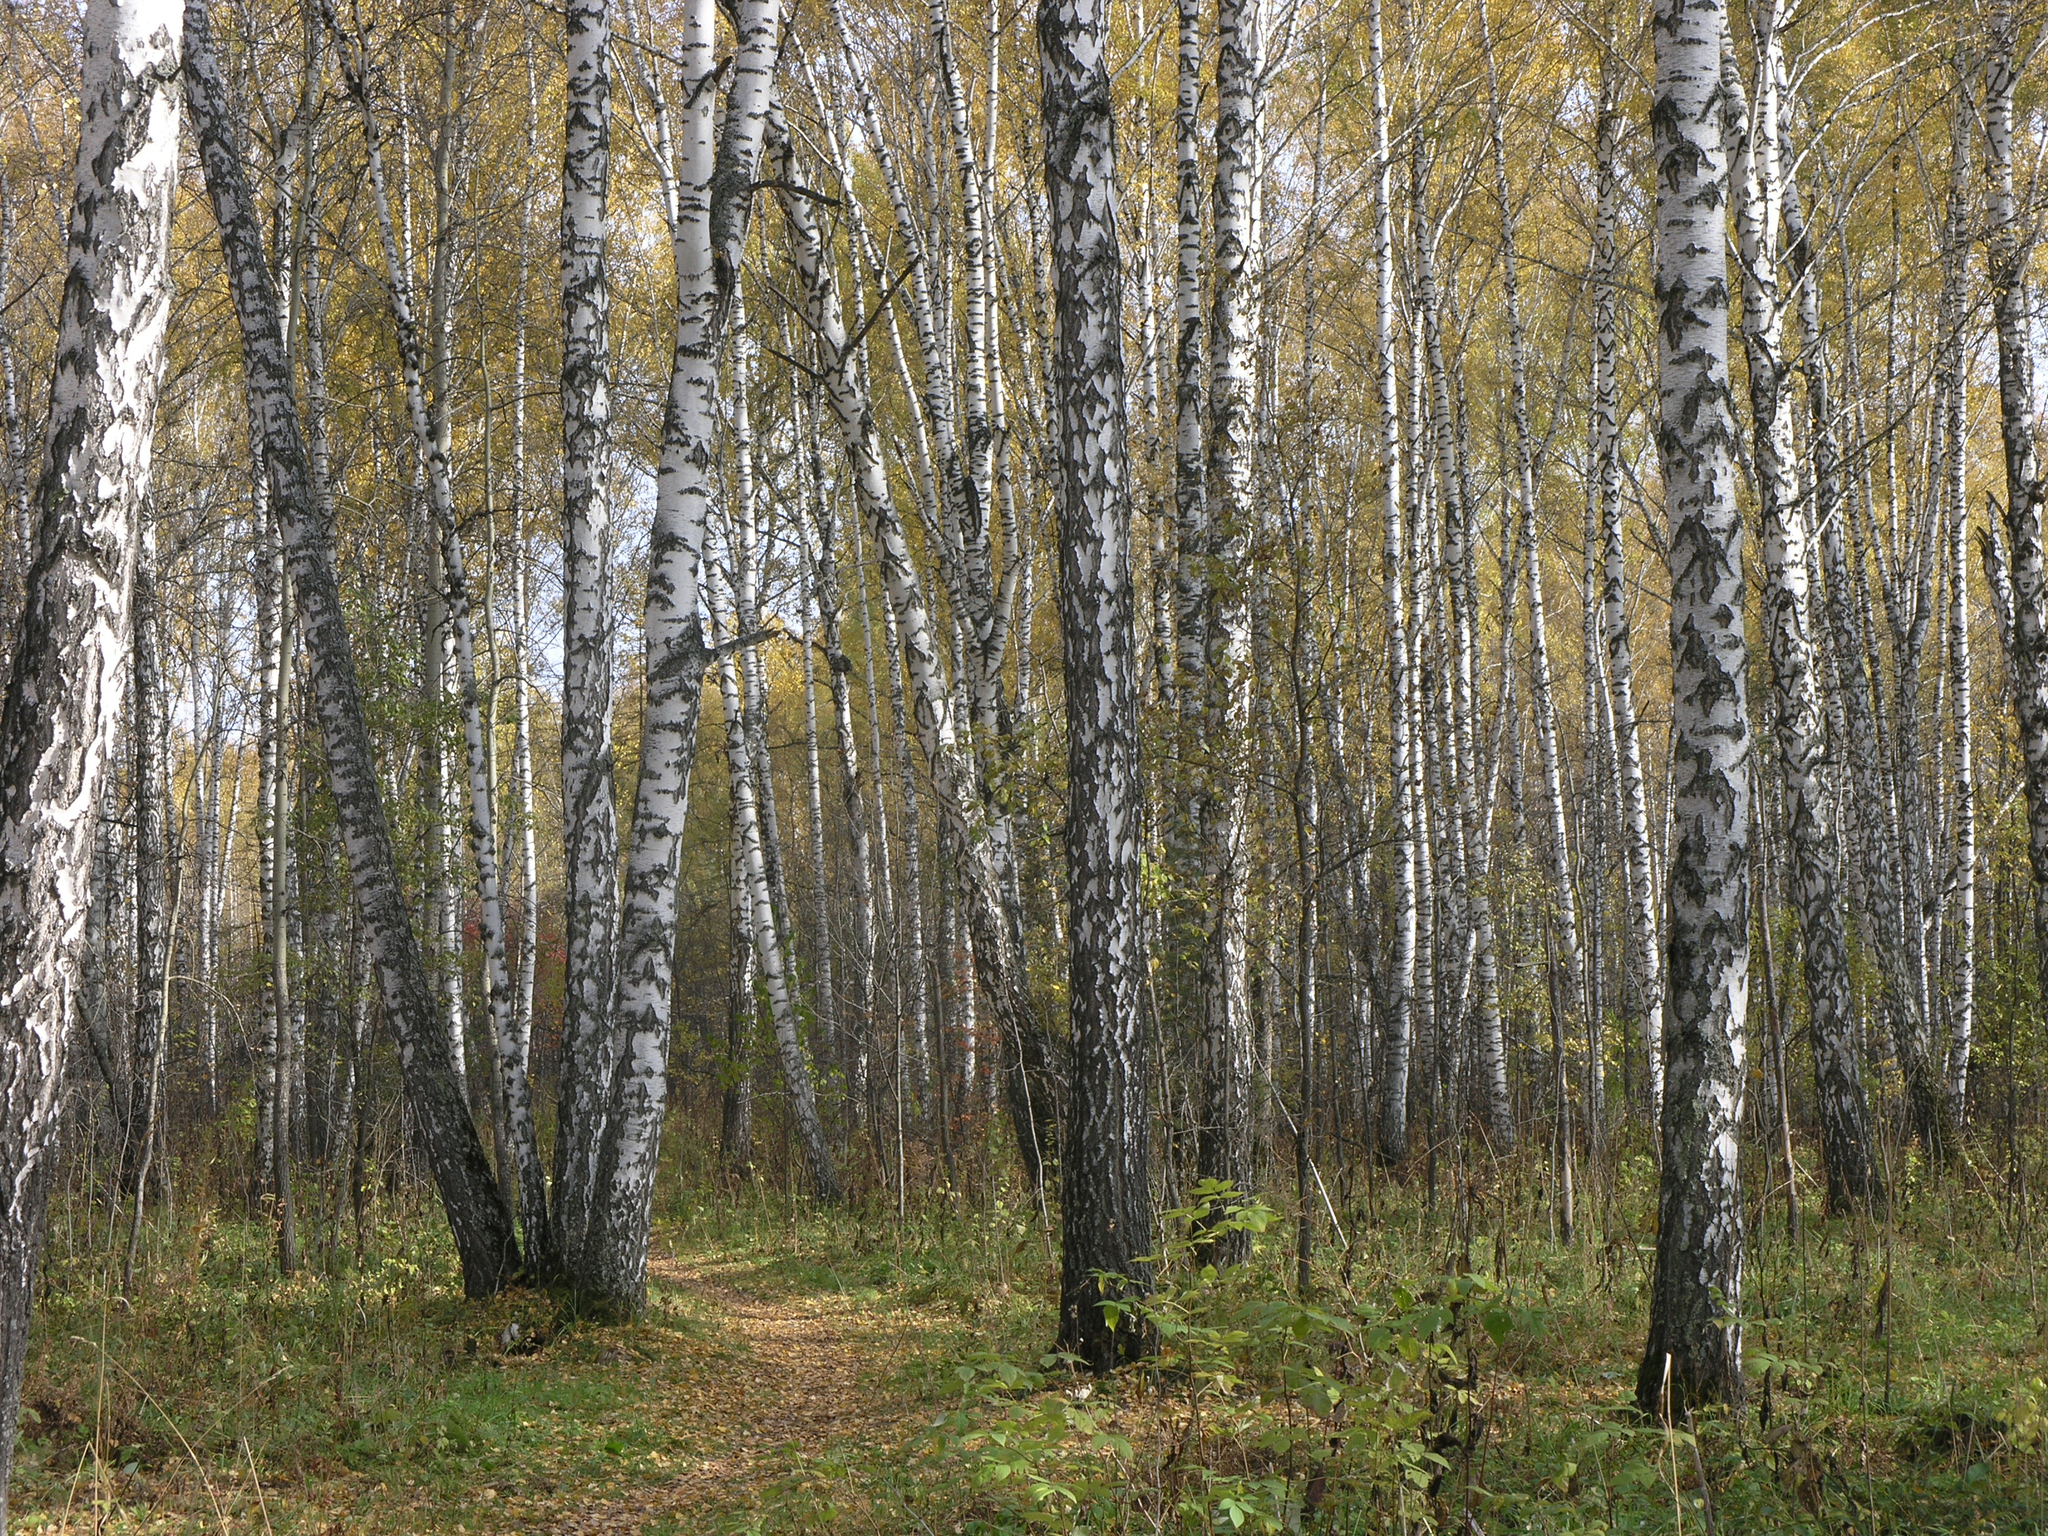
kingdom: Plantae
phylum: Tracheophyta
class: Magnoliopsida
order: Fagales
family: Betulaceae
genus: Betula
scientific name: Betula pendula
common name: Silver birch
